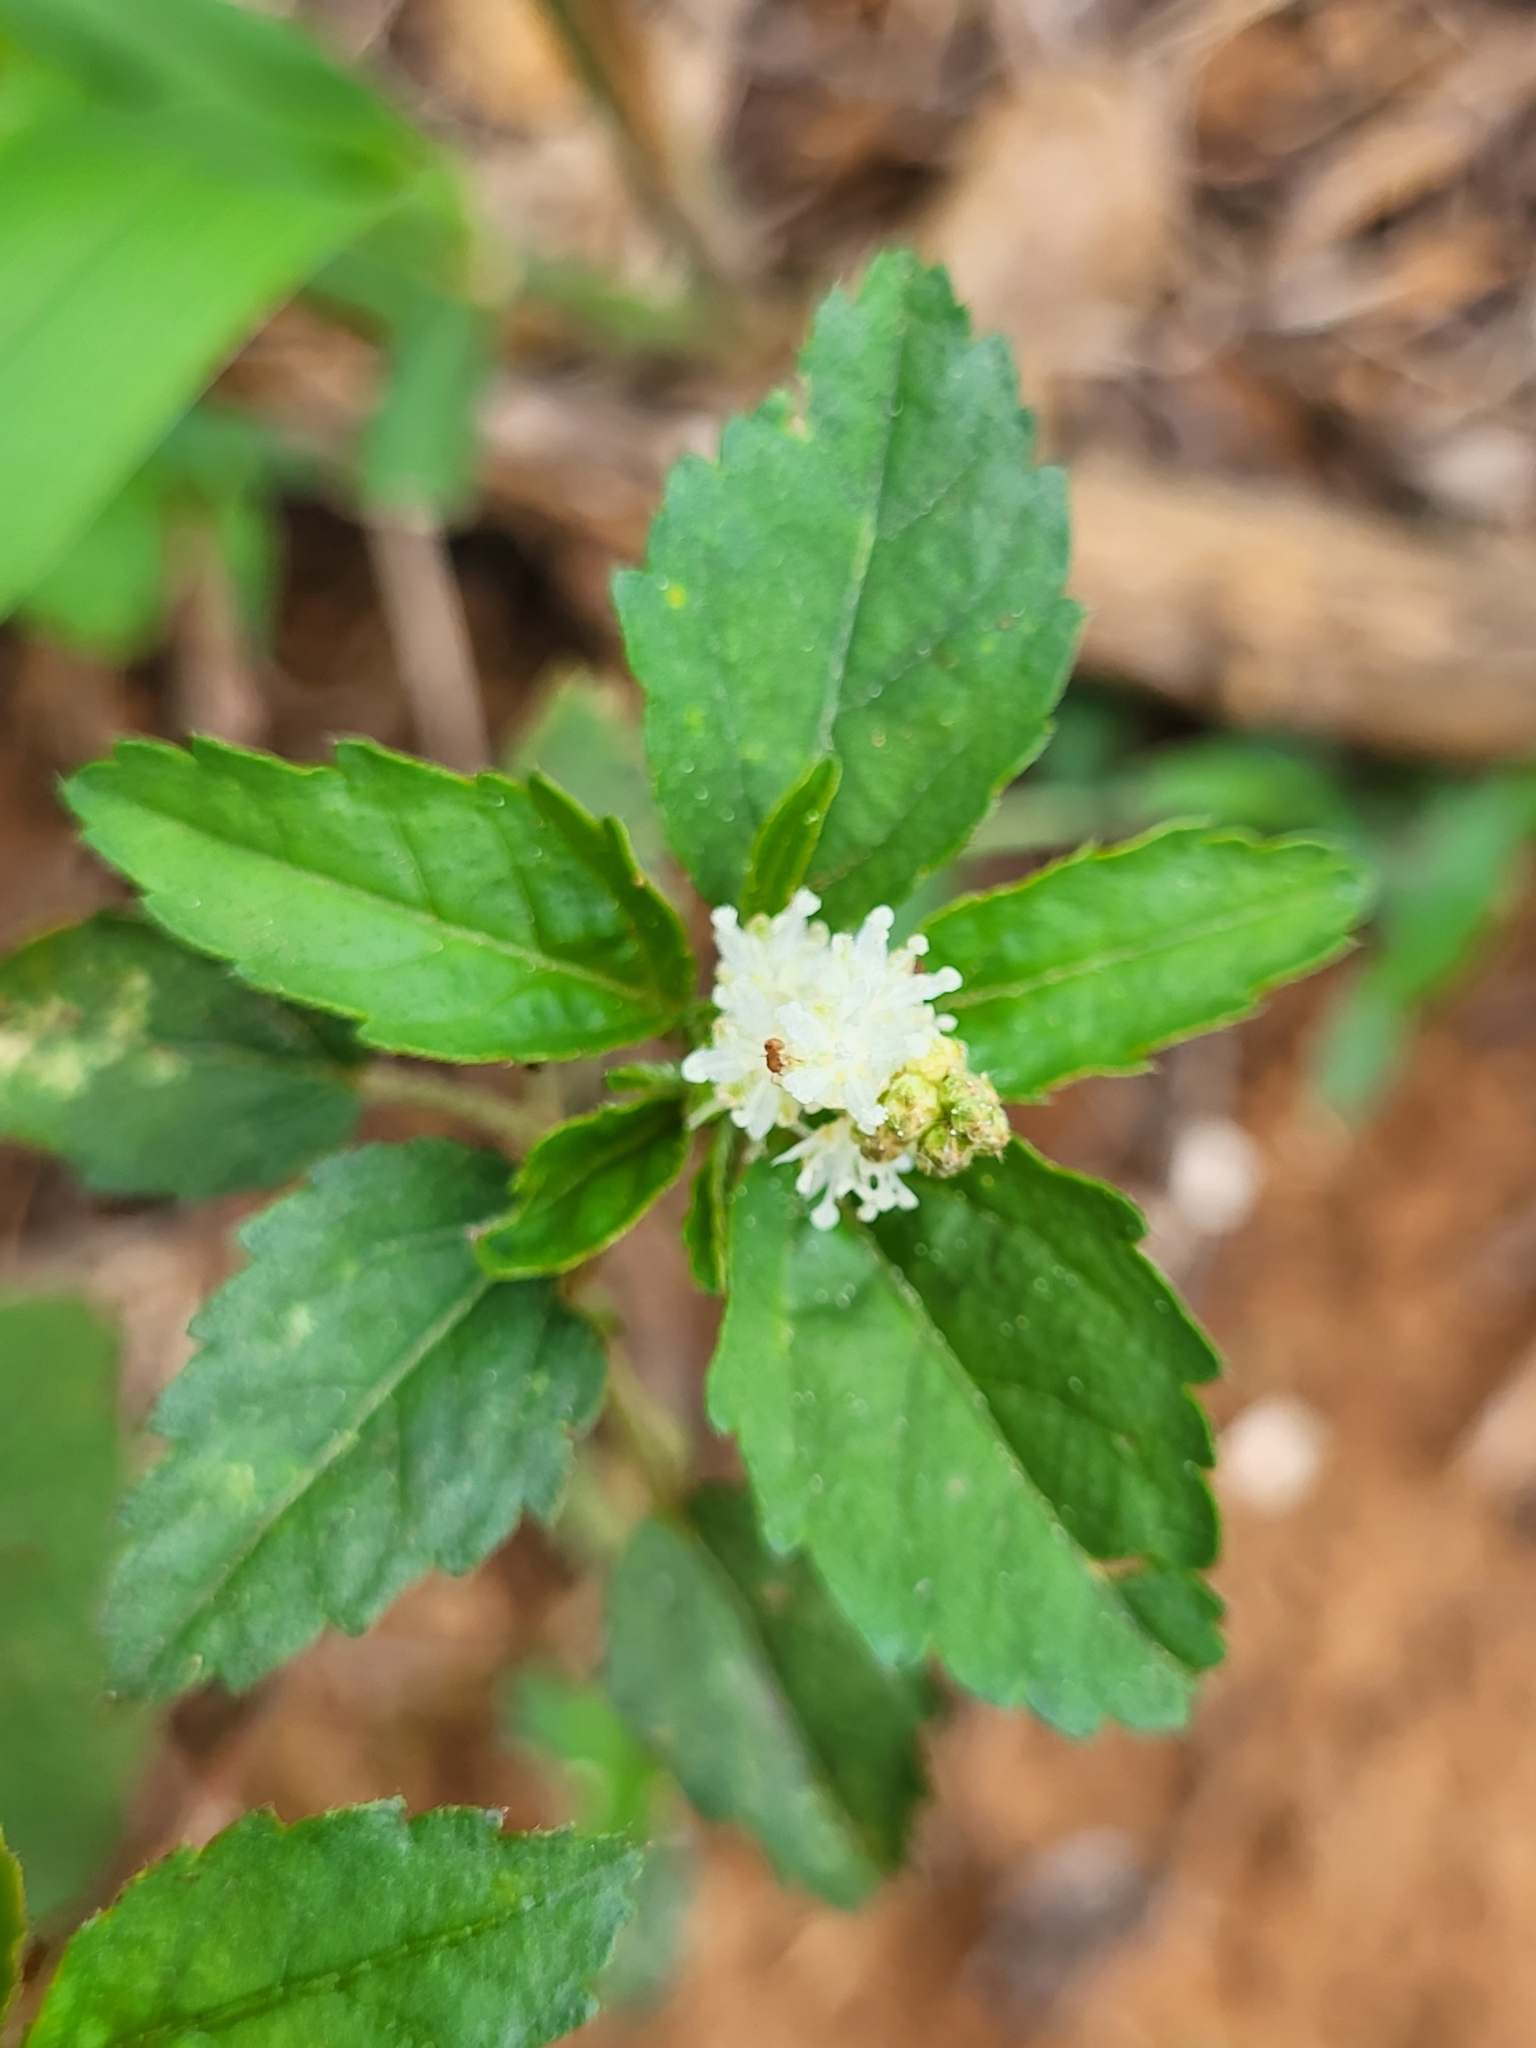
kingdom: Plantae
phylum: Tracheophyta
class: Magnoliopsida
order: Malpighiales
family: Euphorbiaceae
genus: Croton
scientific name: Croton glandulosus
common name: Tropic croton
